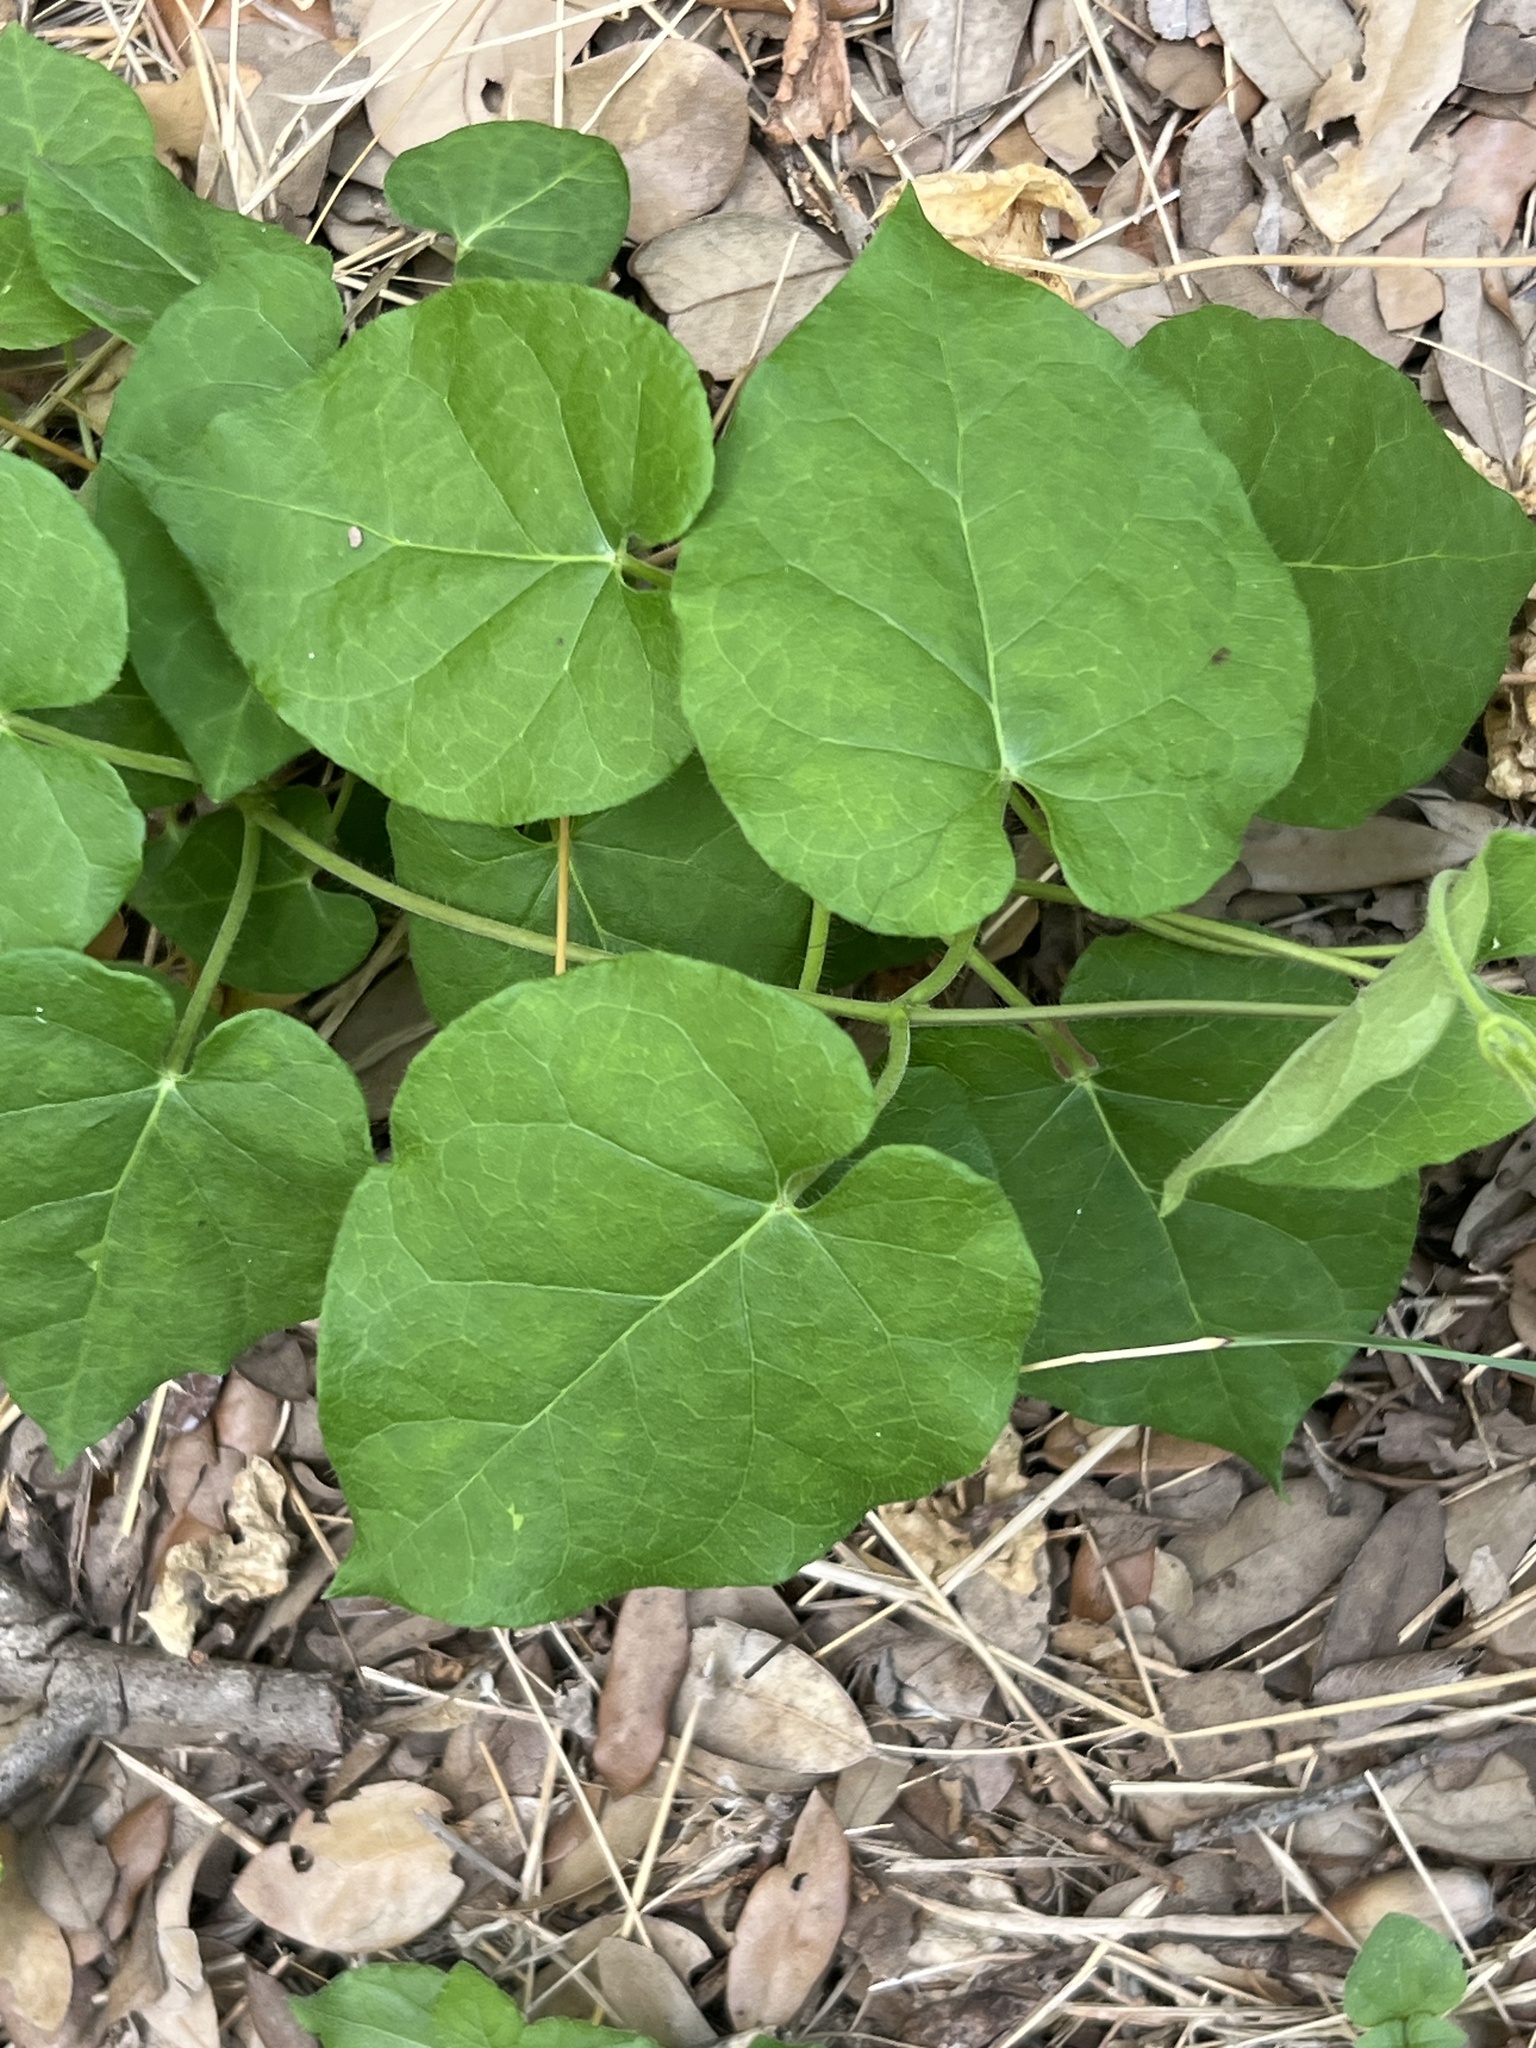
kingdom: Plantae
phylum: Tracheophyta
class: Magnoliopsida
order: Gentianales
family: Apocynaceae
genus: Dictyanthus
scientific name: Dictyanthus reticulatus
